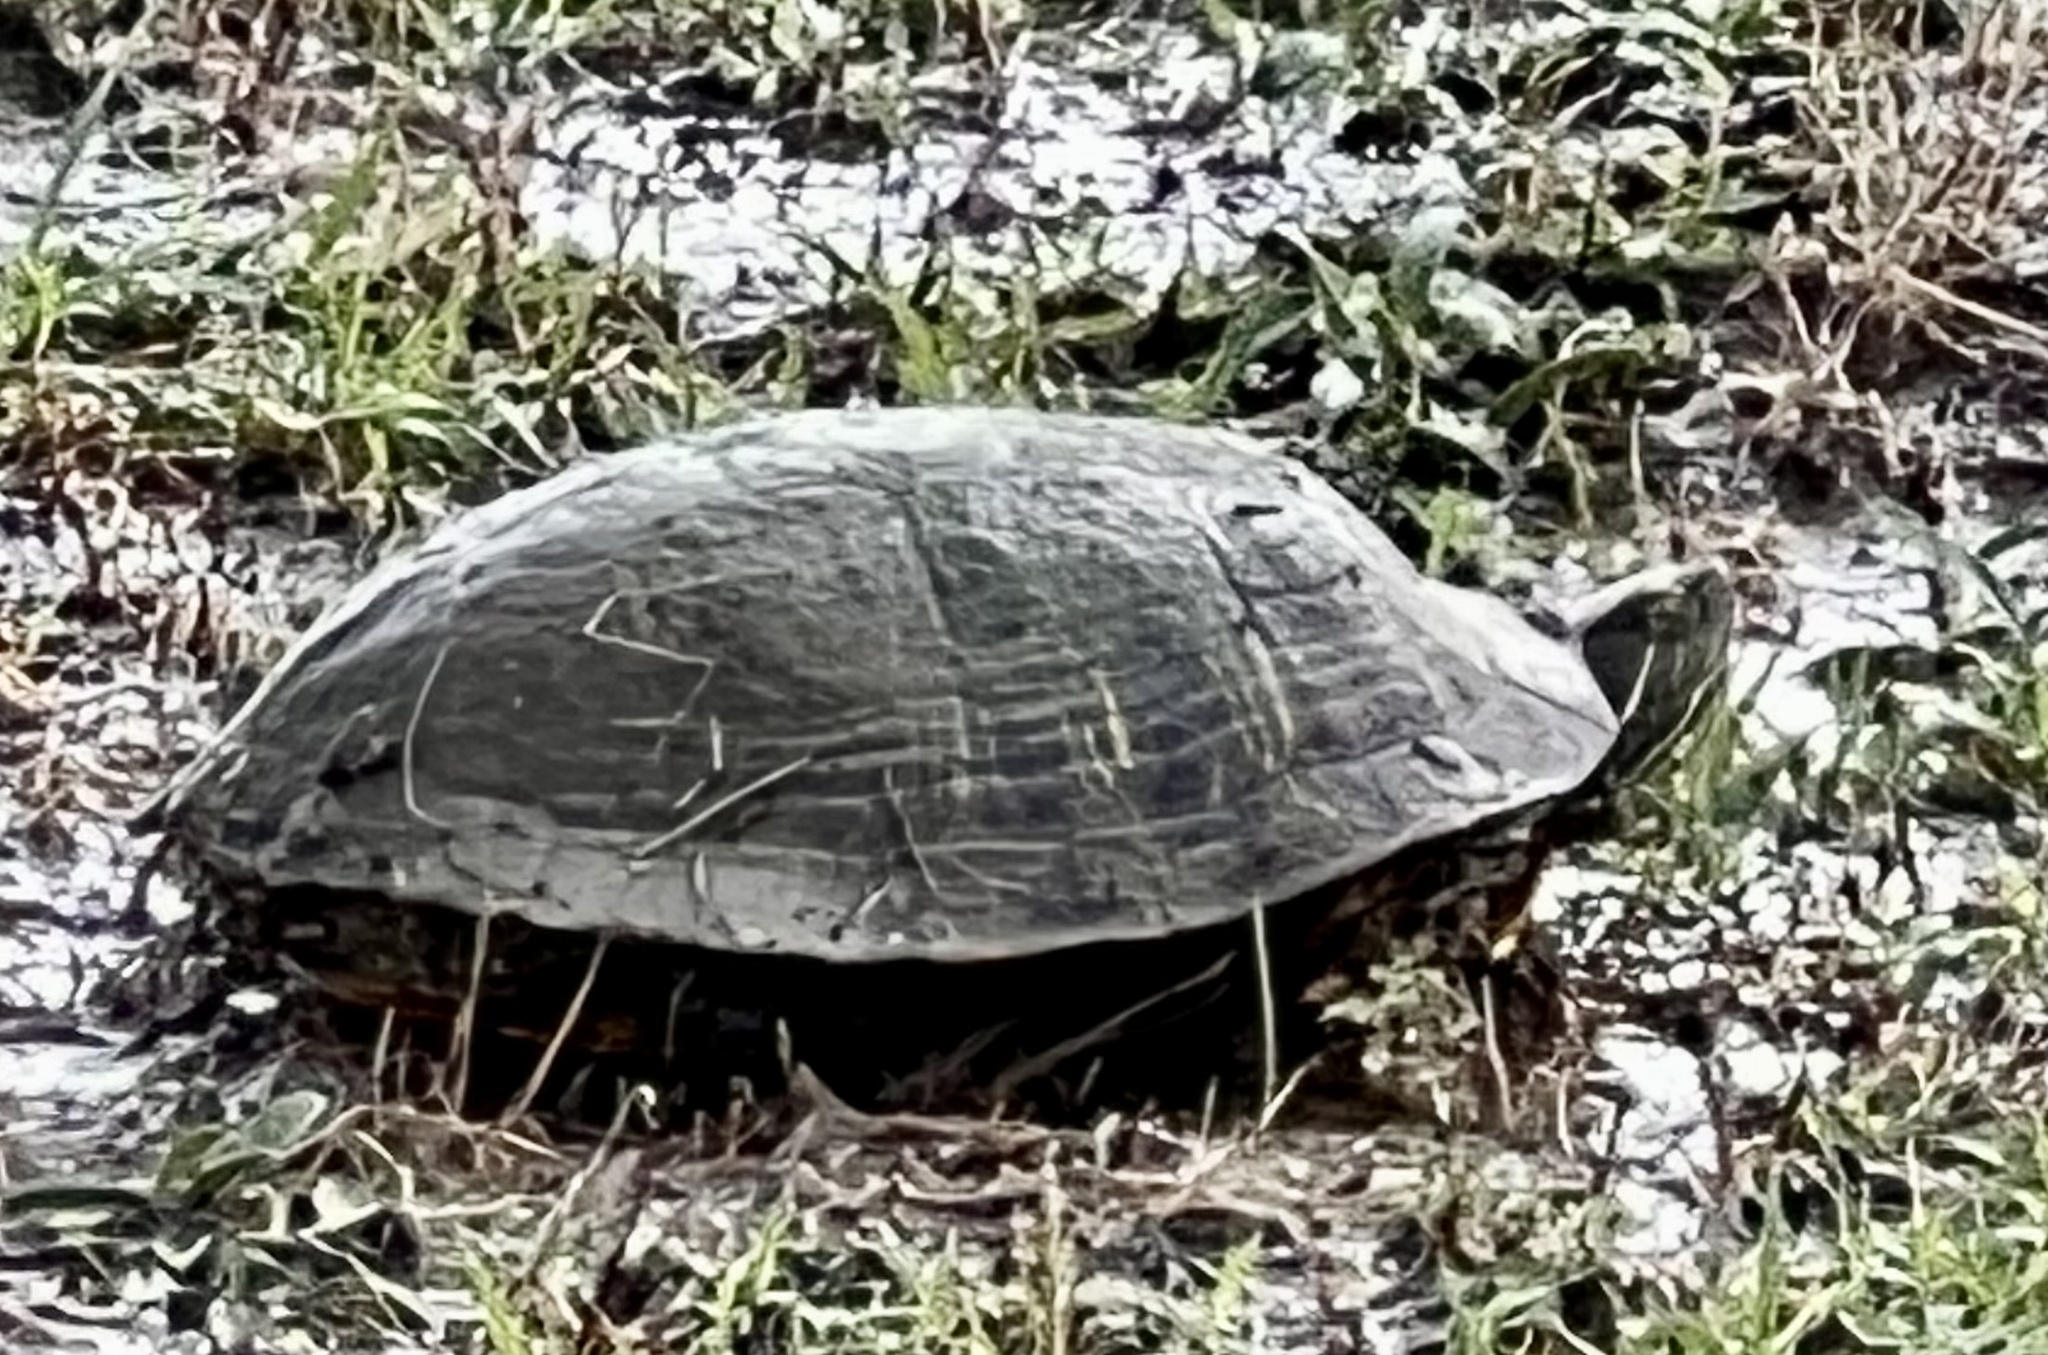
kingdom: Animalia
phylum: Chordata
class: Testudines
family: Emydidae
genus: Trachemys
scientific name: Trachemys scripta
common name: Slider
